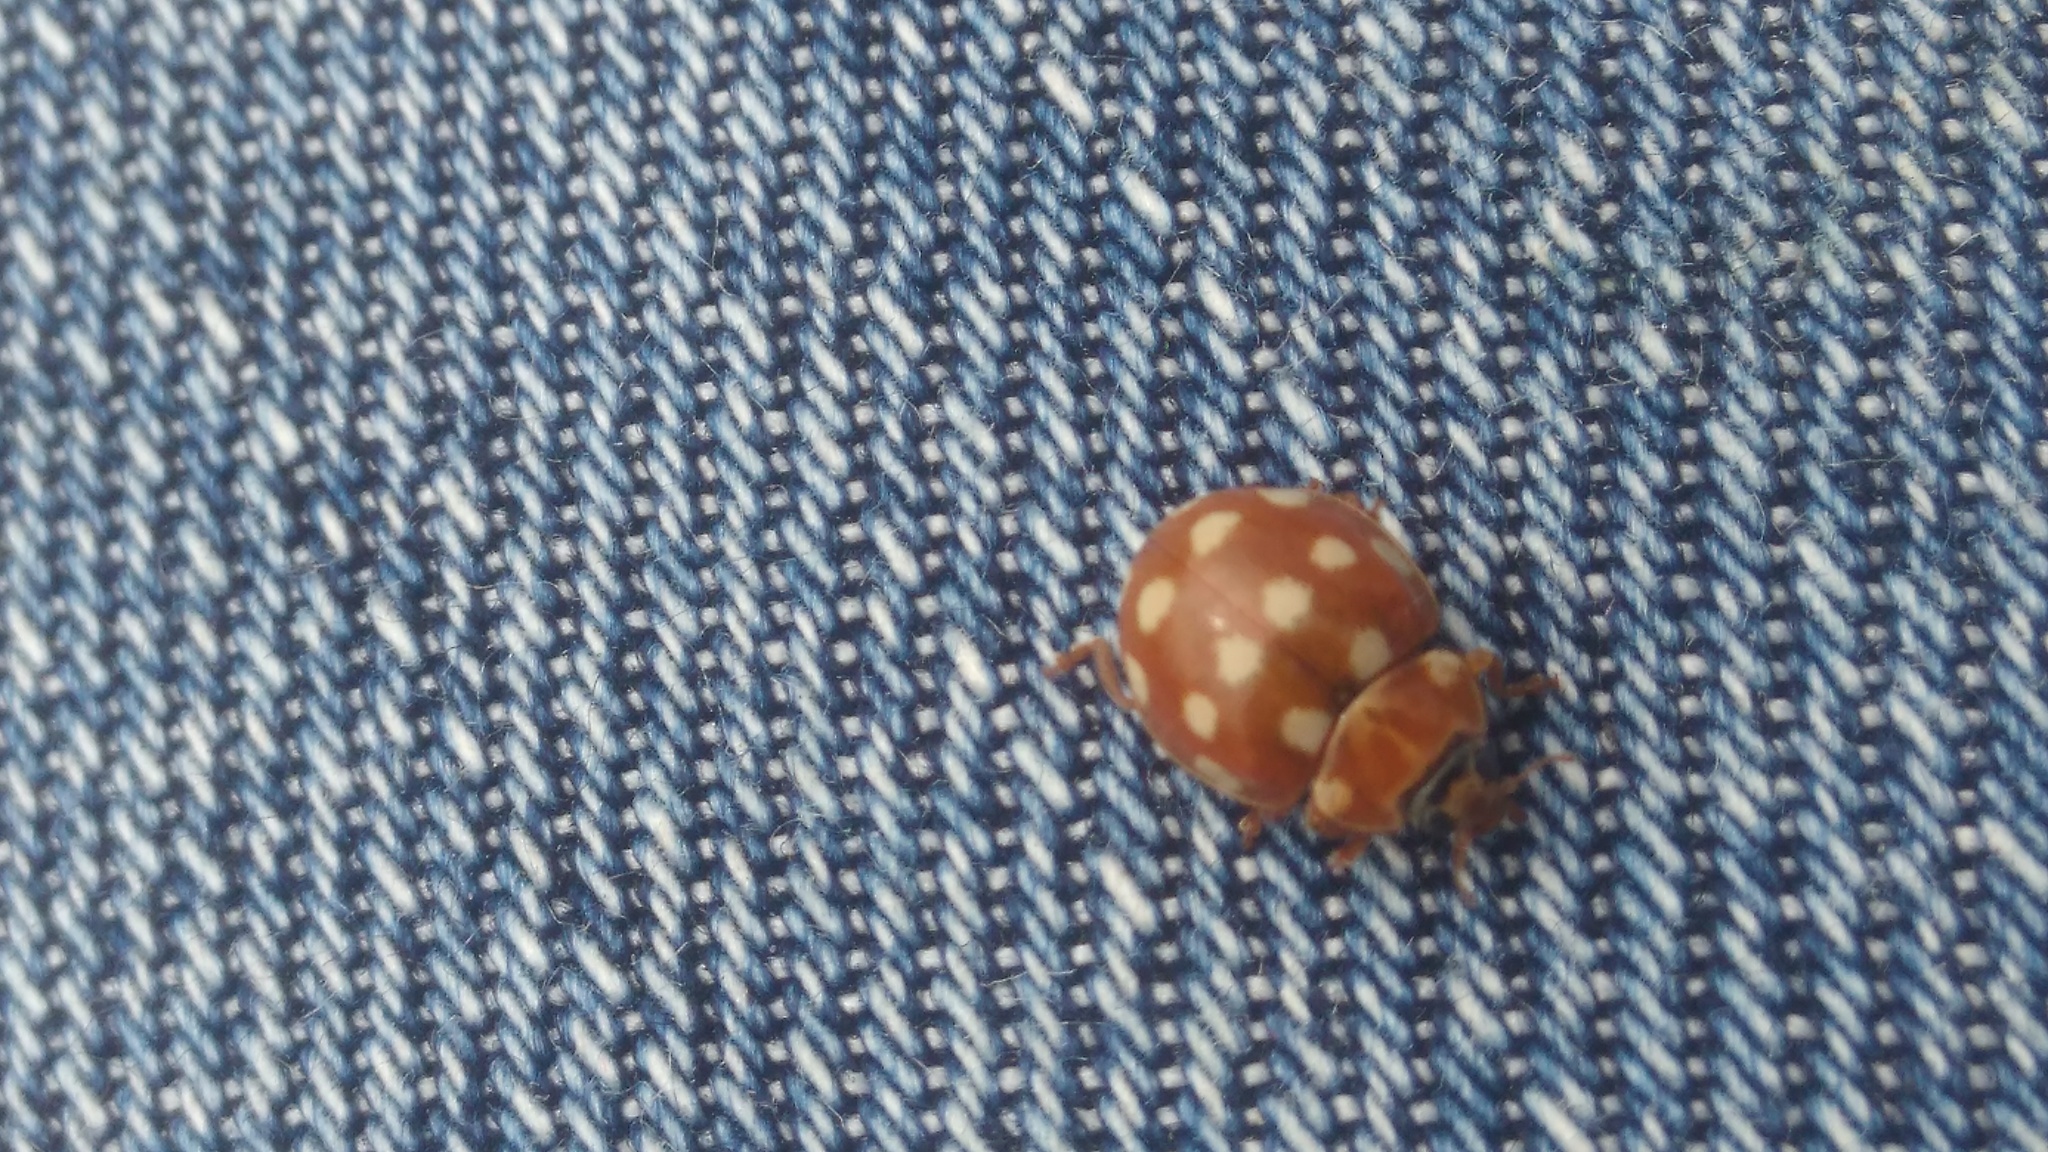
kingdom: Animalia
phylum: Arthropoda
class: Insecta
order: Coleoptera
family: Coccinellidae
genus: Calvia
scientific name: Calvia quatuordecimguttata
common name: Cream-spot ladybird
